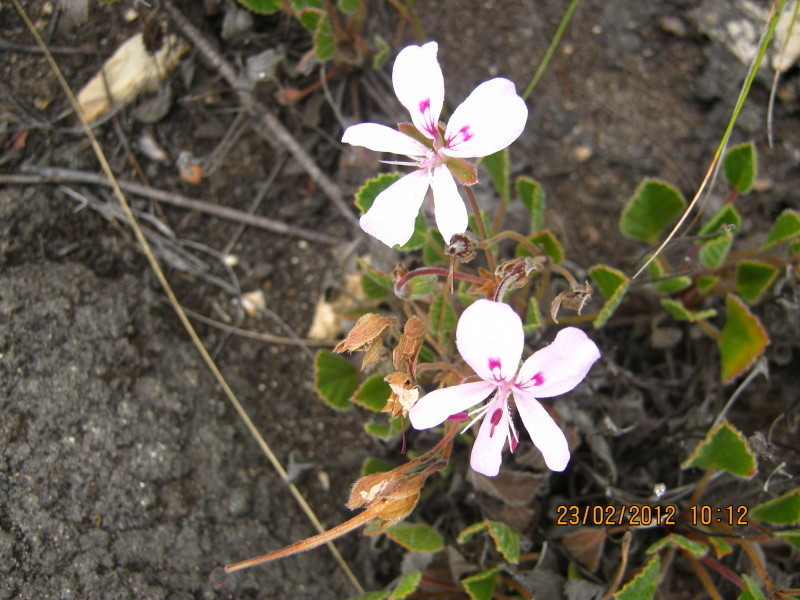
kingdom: Plantae
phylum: Tracheophyta
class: Magnoliopsida
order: Geraniales
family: Geraniaceae
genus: Pelargonium
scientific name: Pelargonium ovale
